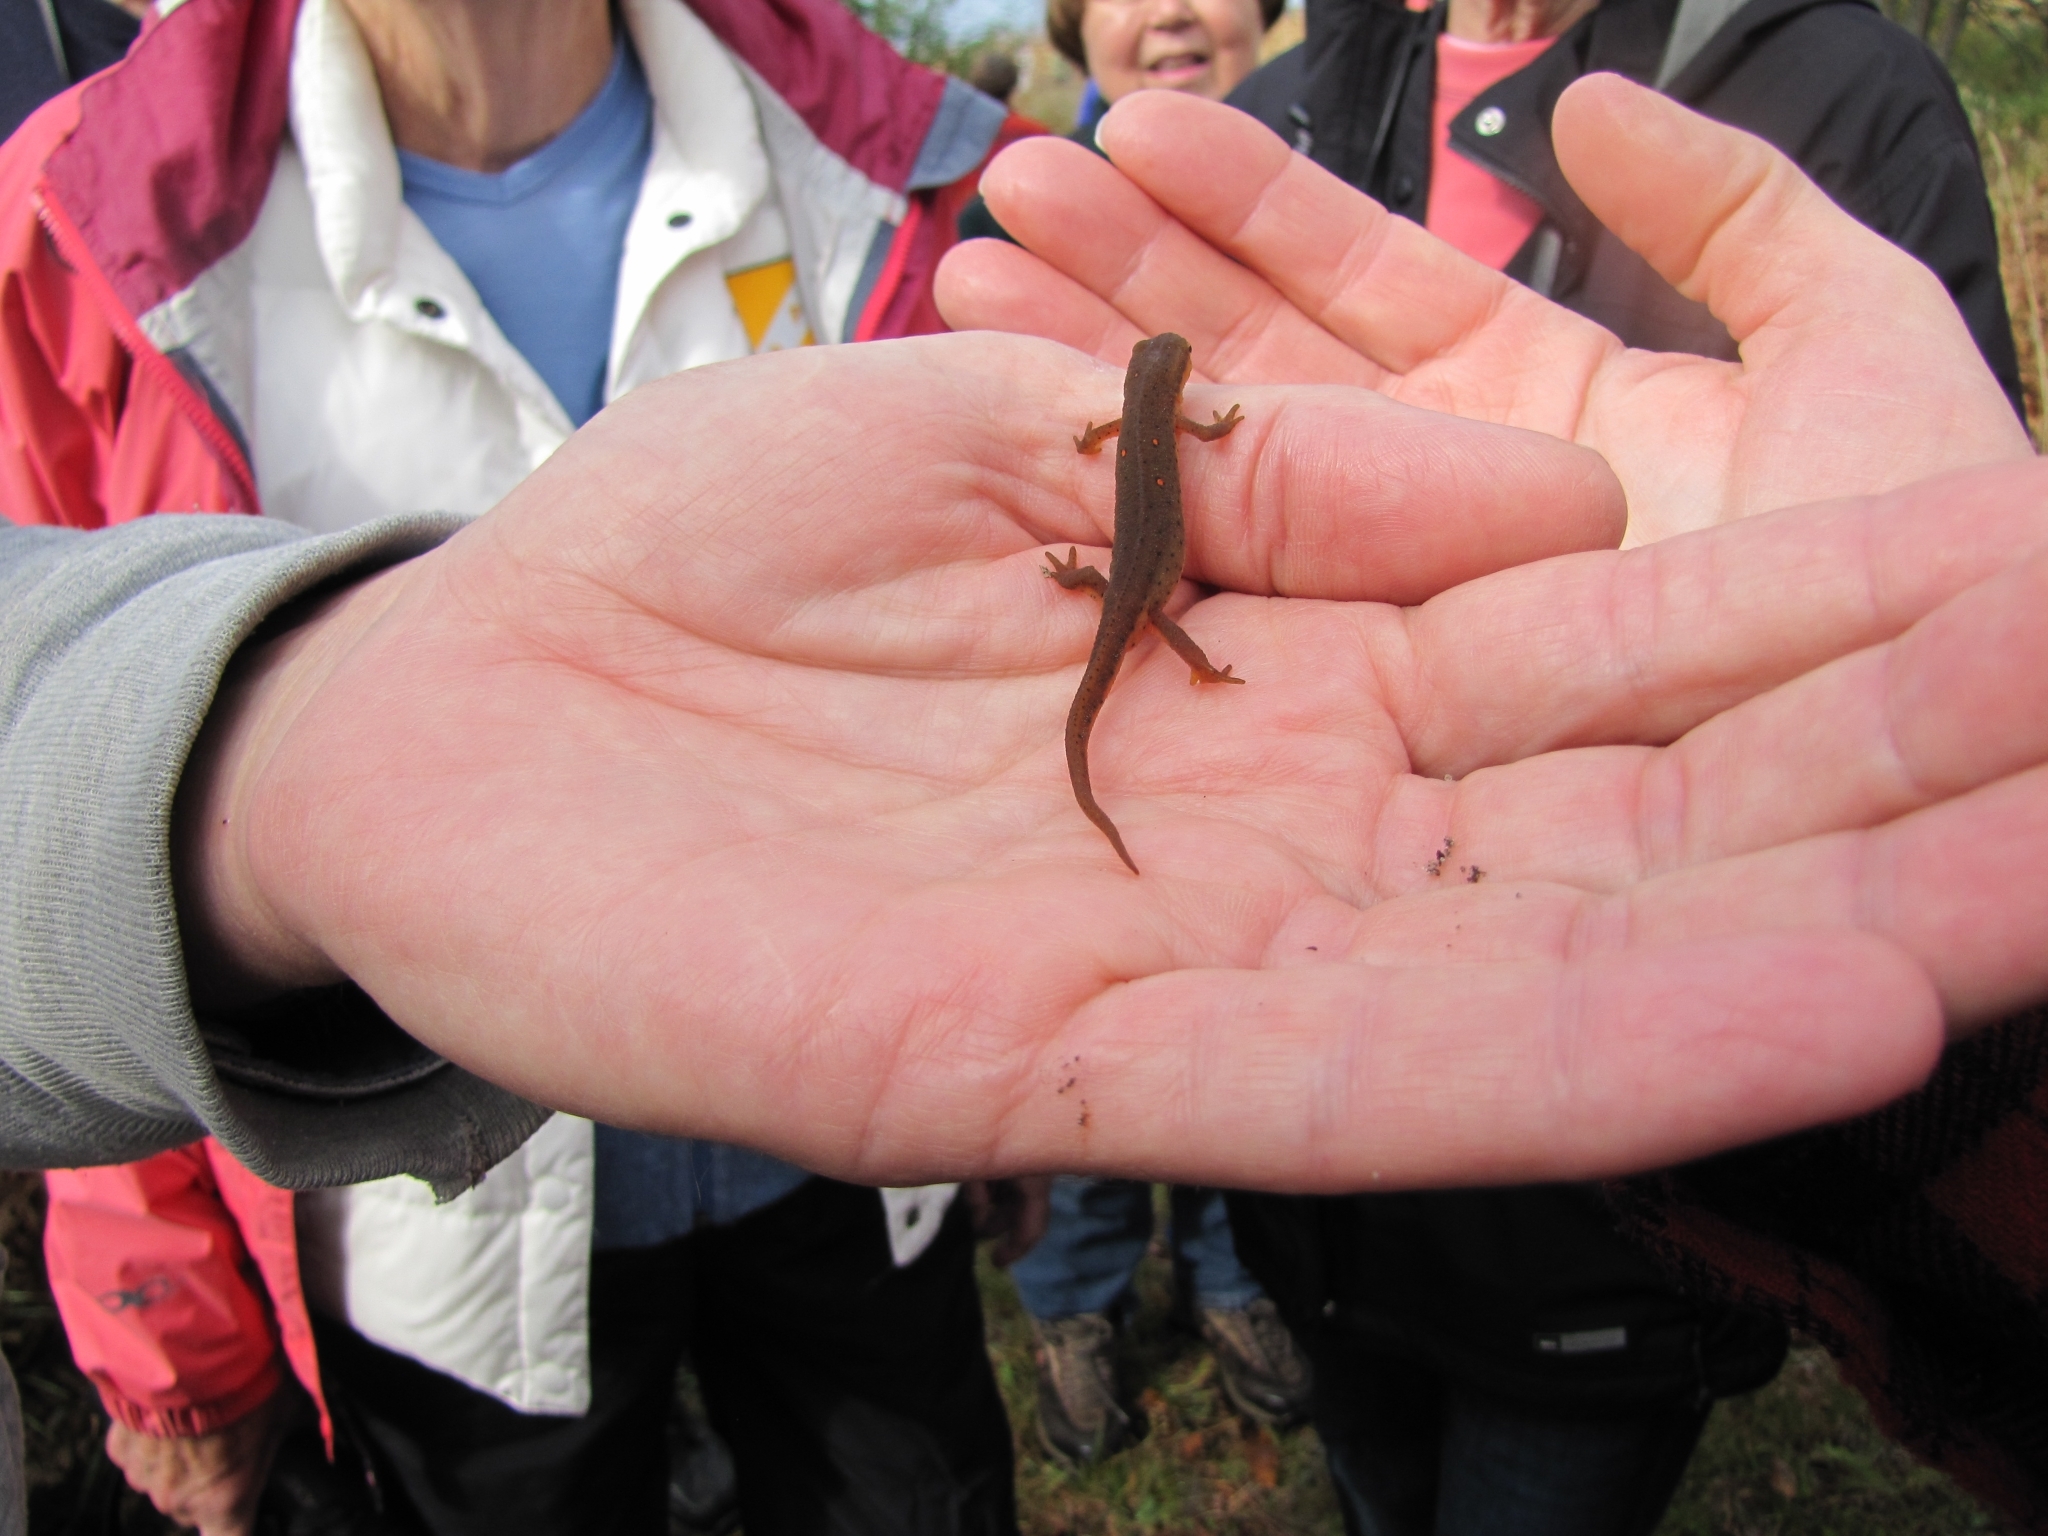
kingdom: Animalia
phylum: Chordata
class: Amphibia
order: Caudata
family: Salamandridae
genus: Notophthalmus
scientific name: Notophthalmus viridescens
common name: Eastern newt
